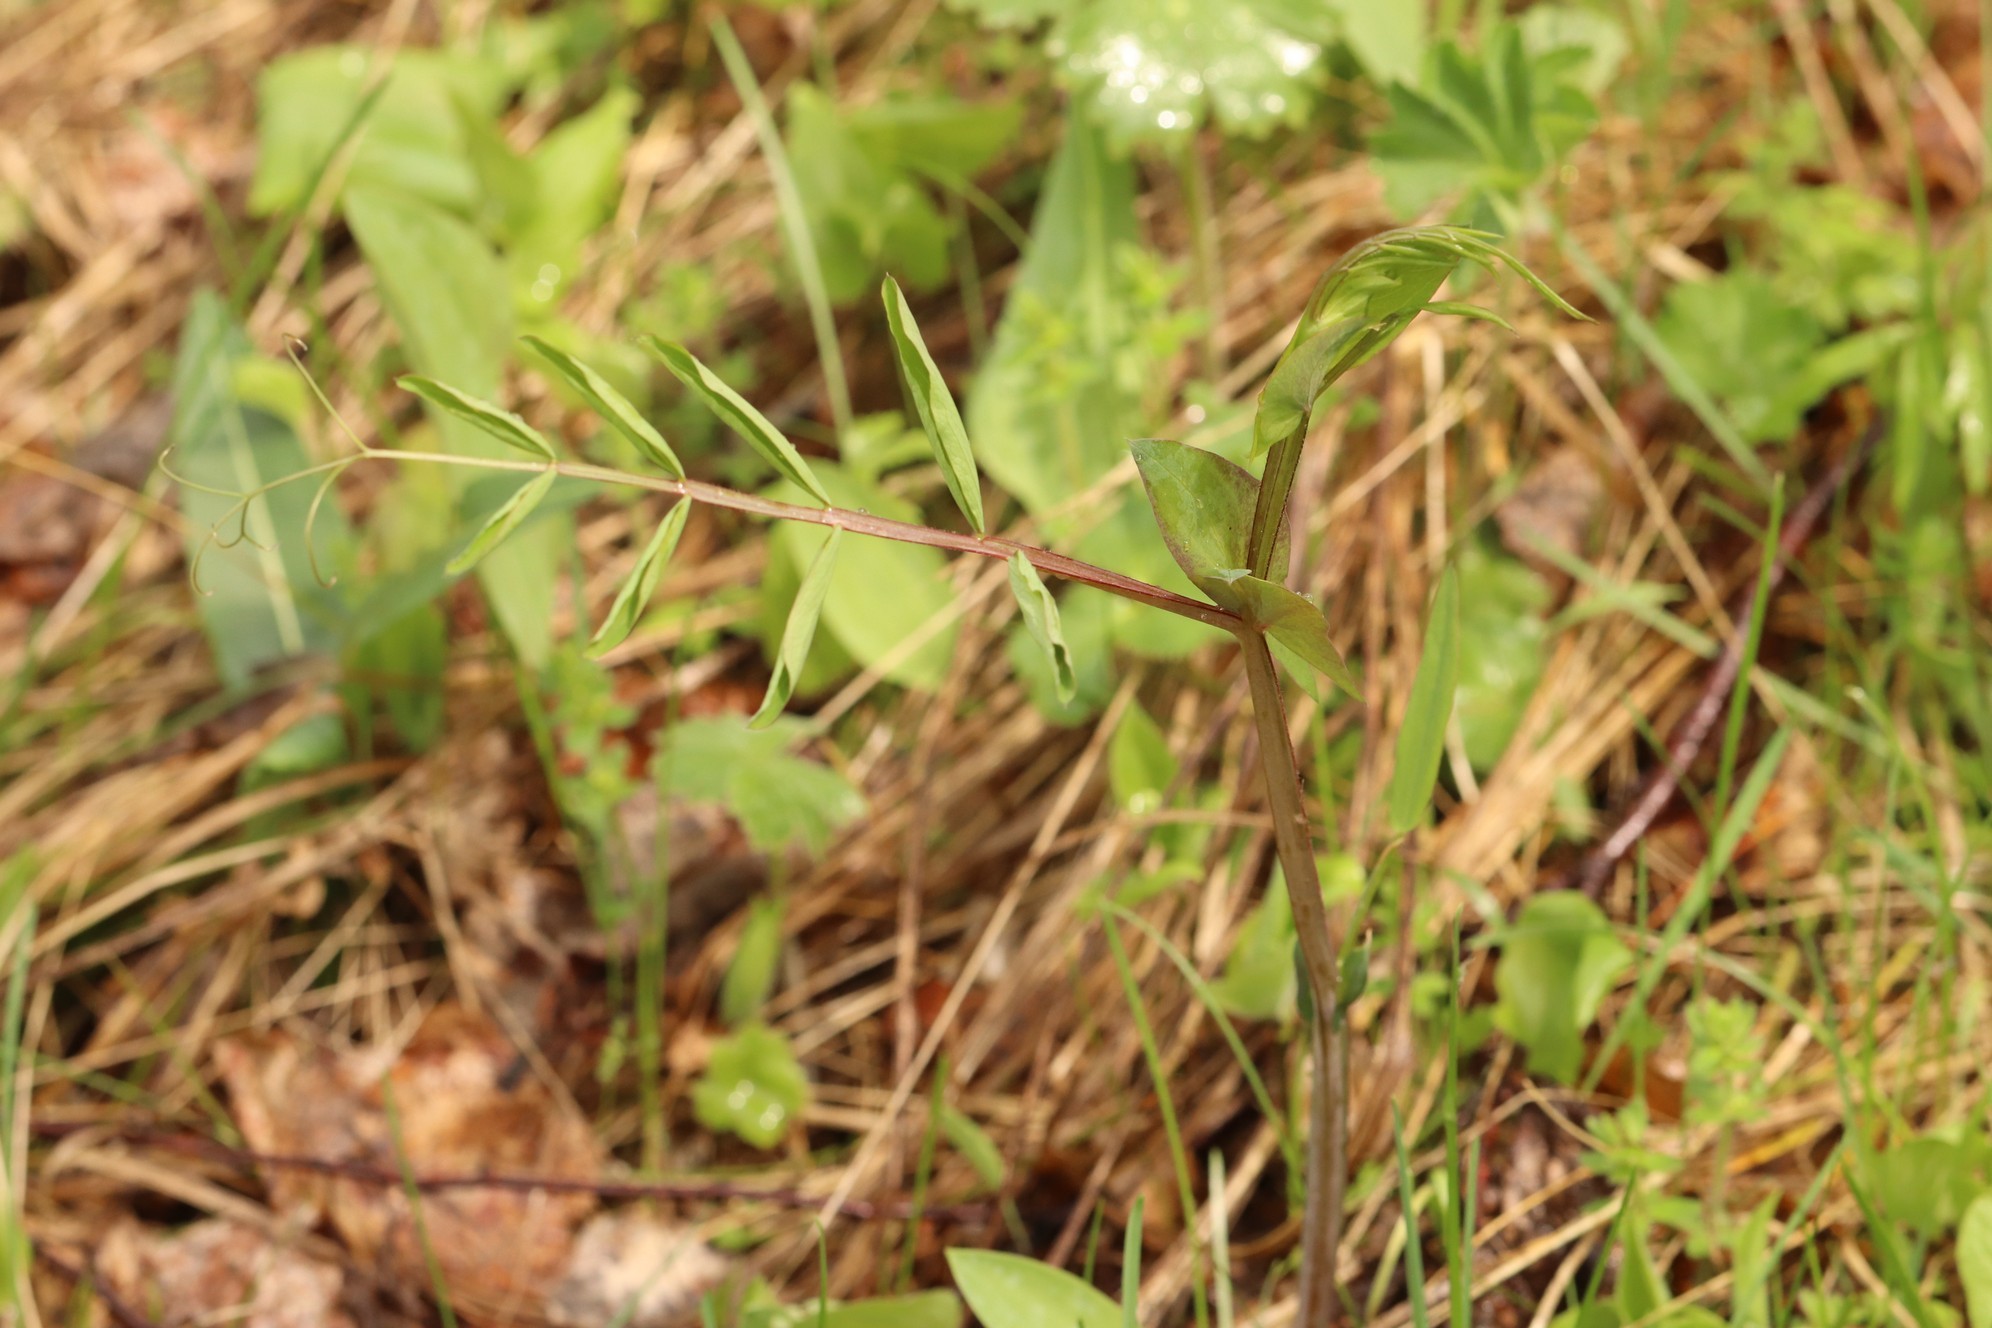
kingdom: Plantae
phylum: Tracheophyta
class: Magnoliopsida
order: Fabales
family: Fabaceae
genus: Lathyrus
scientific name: Lathyrus pisiformis
